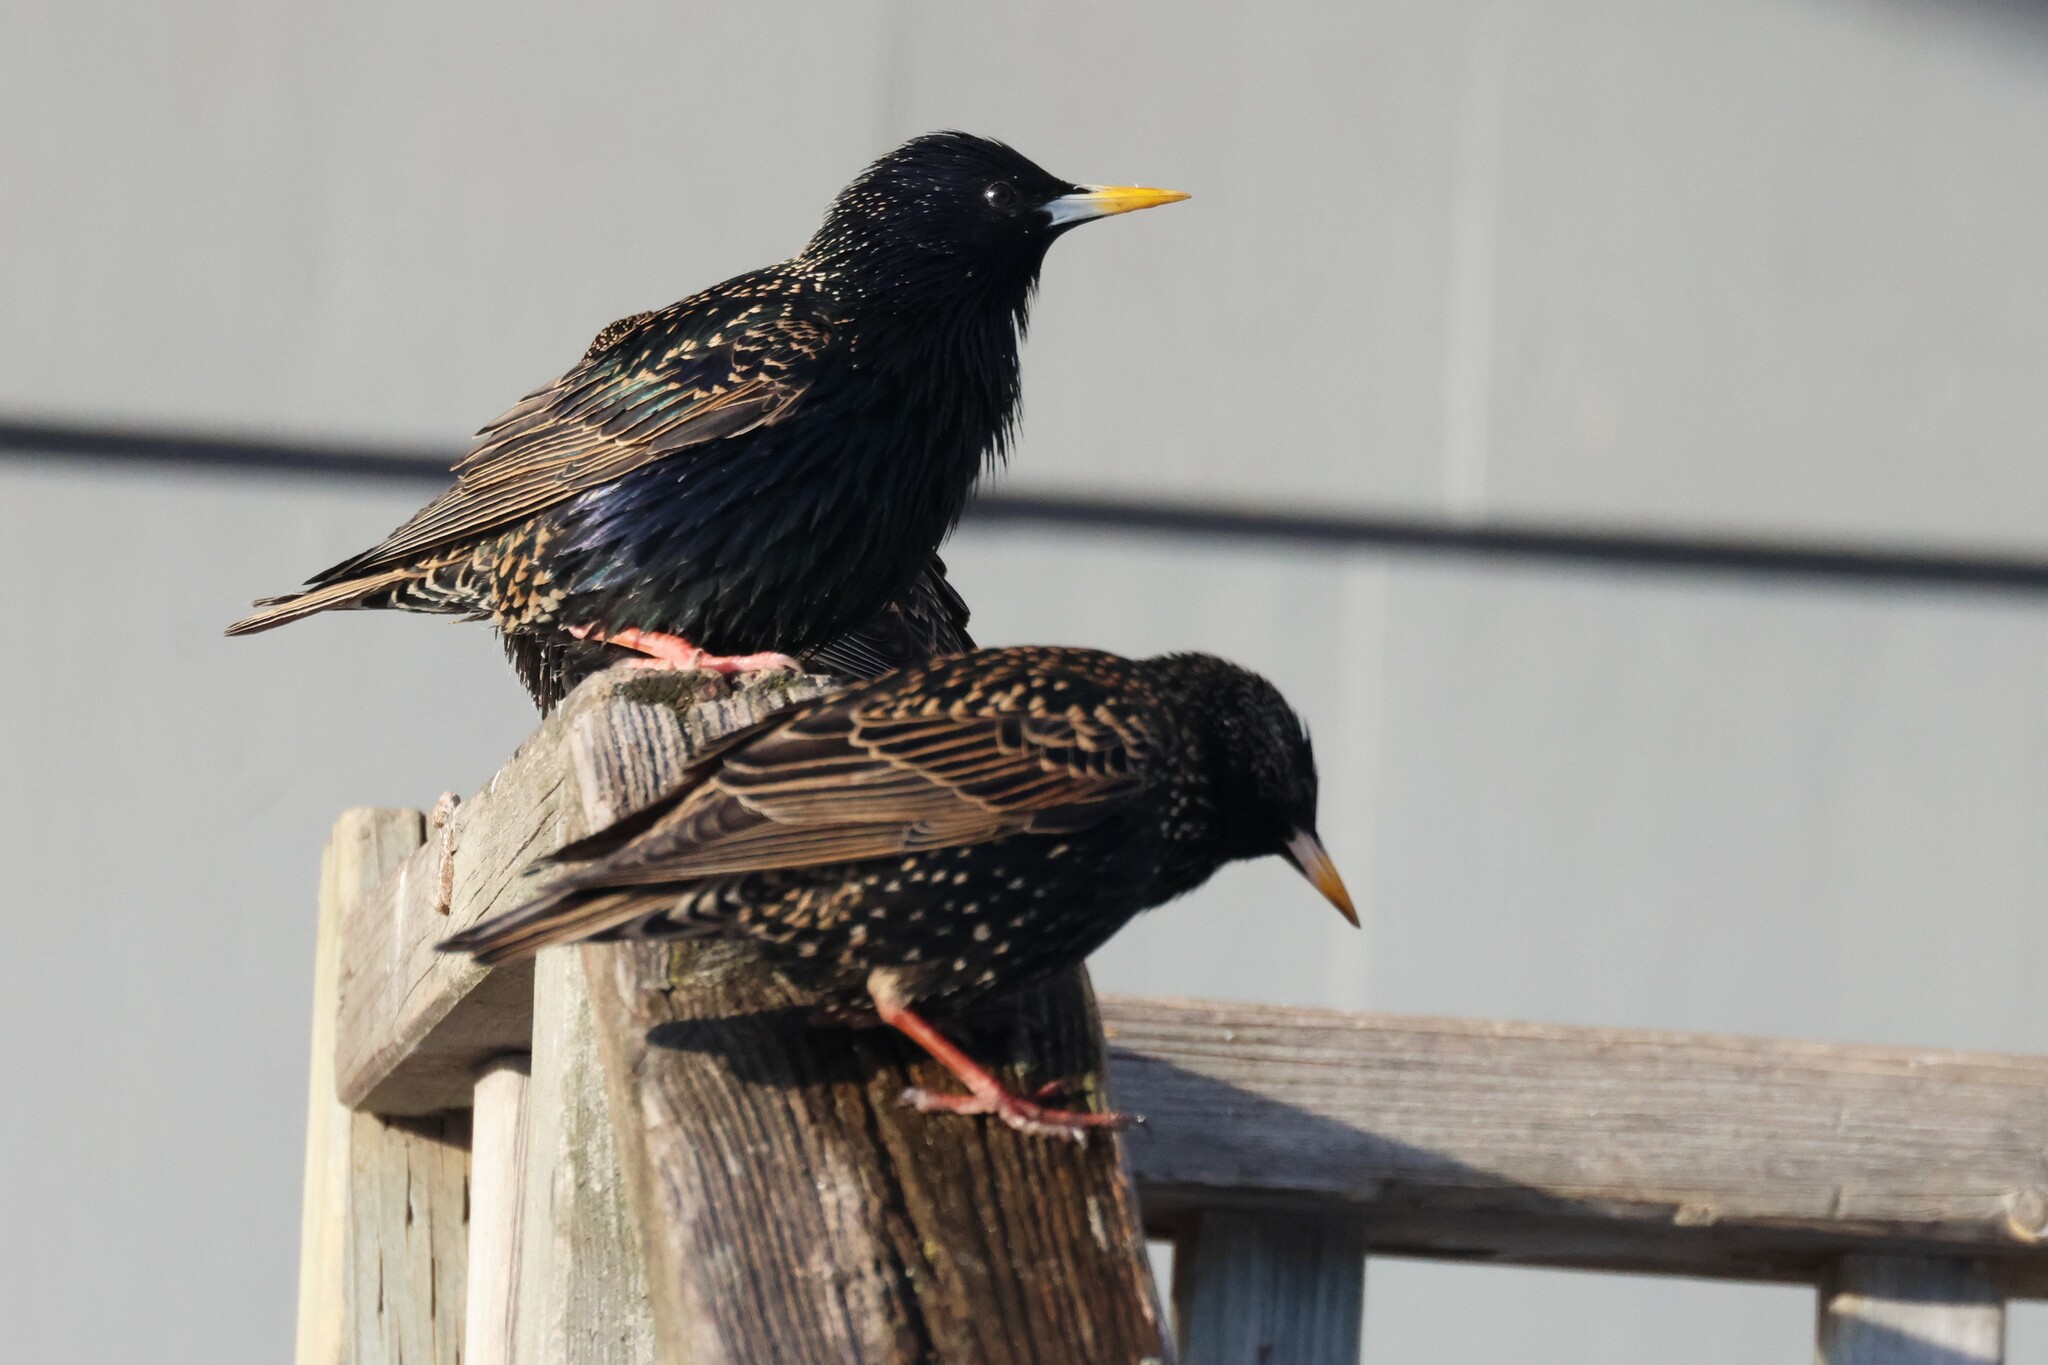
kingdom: Animalia
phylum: Chordata
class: Aves
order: Passeriformes
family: Sturnidae
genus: Sturnus
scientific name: Sturnus vulgaris
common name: Common starling
